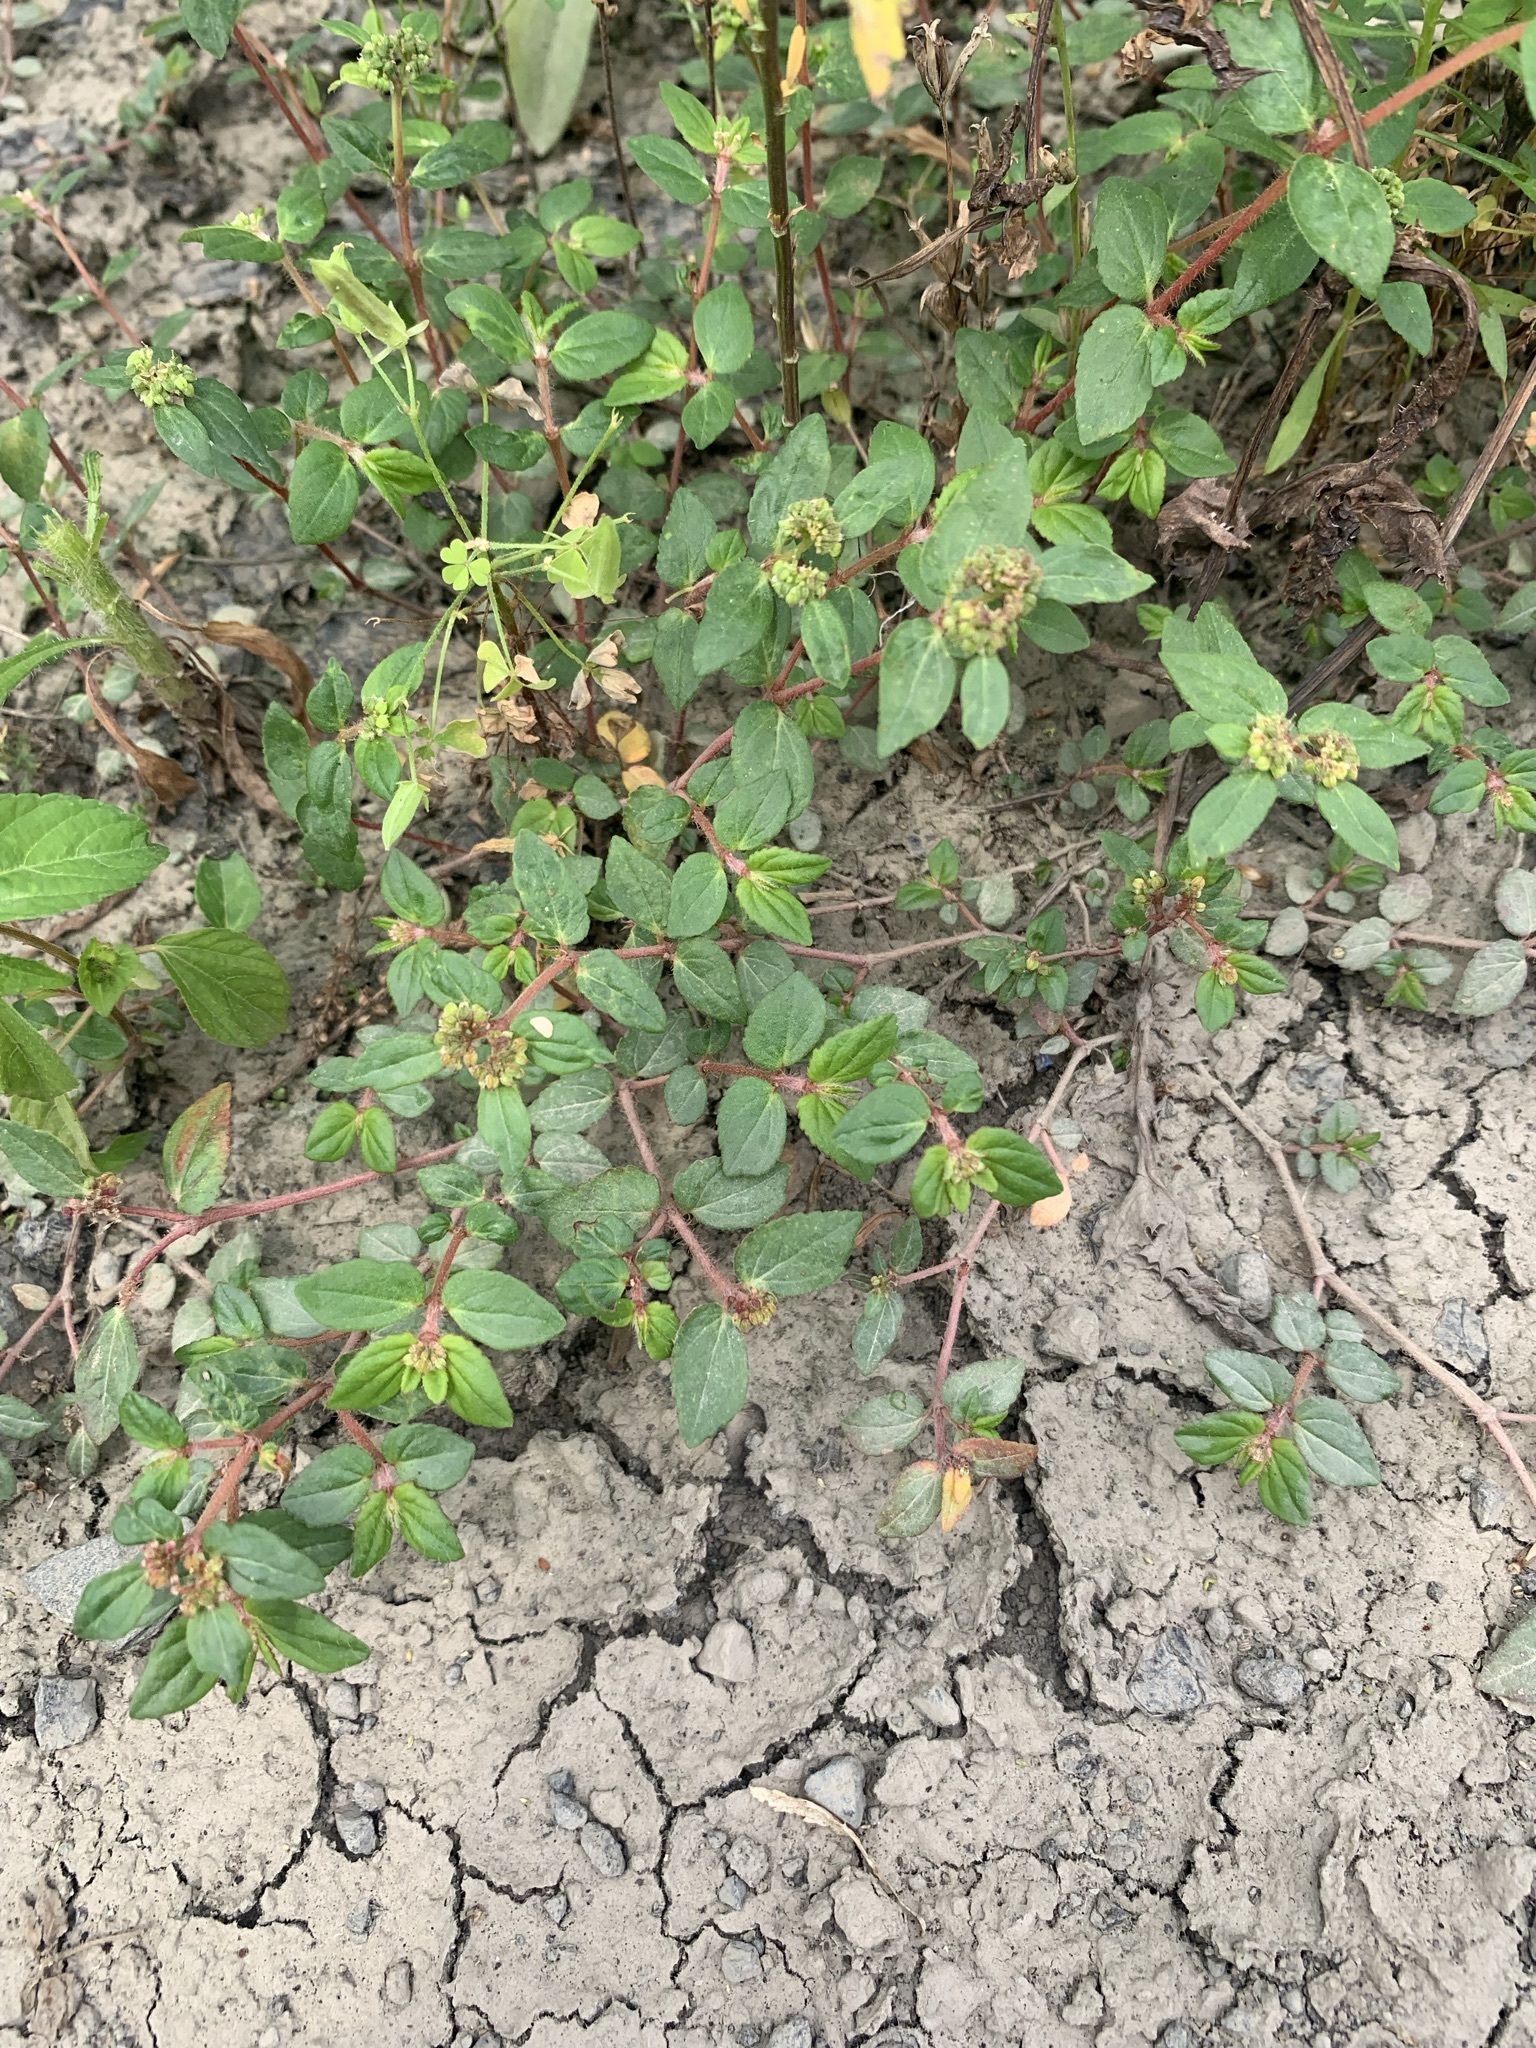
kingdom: Plantae
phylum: Tracheophyta
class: Magnoliopsida
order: Malpighiales
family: Euphorbiaceae
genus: Euphorbia
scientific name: Euphorbia ophthalmica
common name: Florida hammock sandmat
